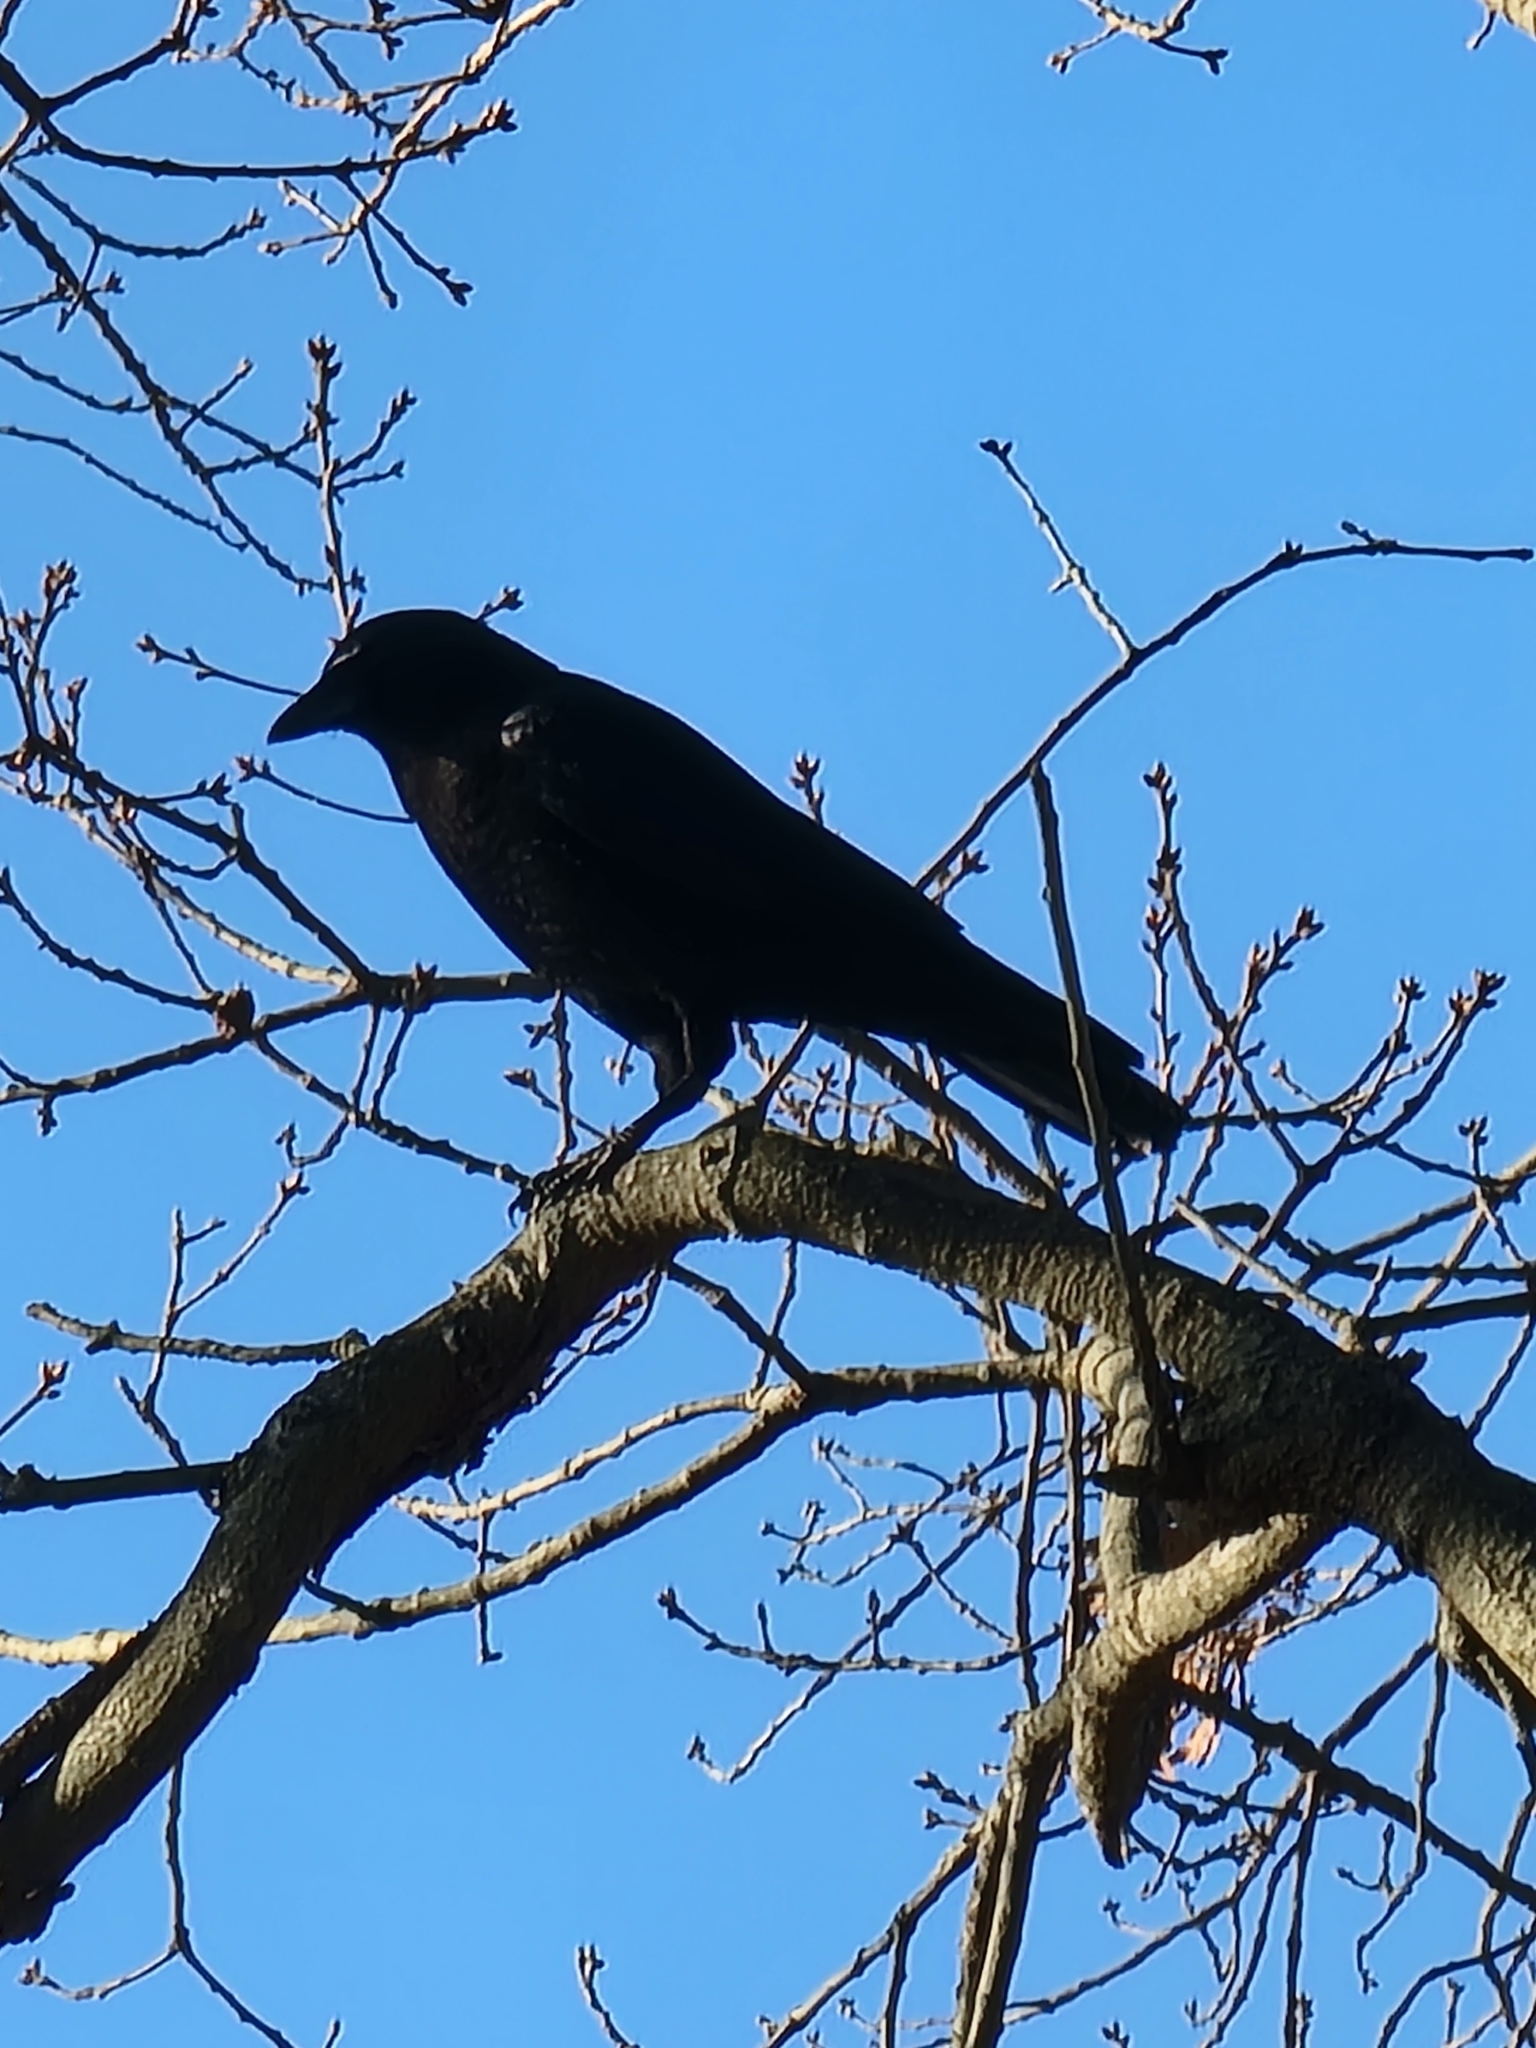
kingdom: Animalia
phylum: Chordata
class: Aves
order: Passeriformes
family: Corvidae
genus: Corvus
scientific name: Corvus brachyrhynchos
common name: American crow
